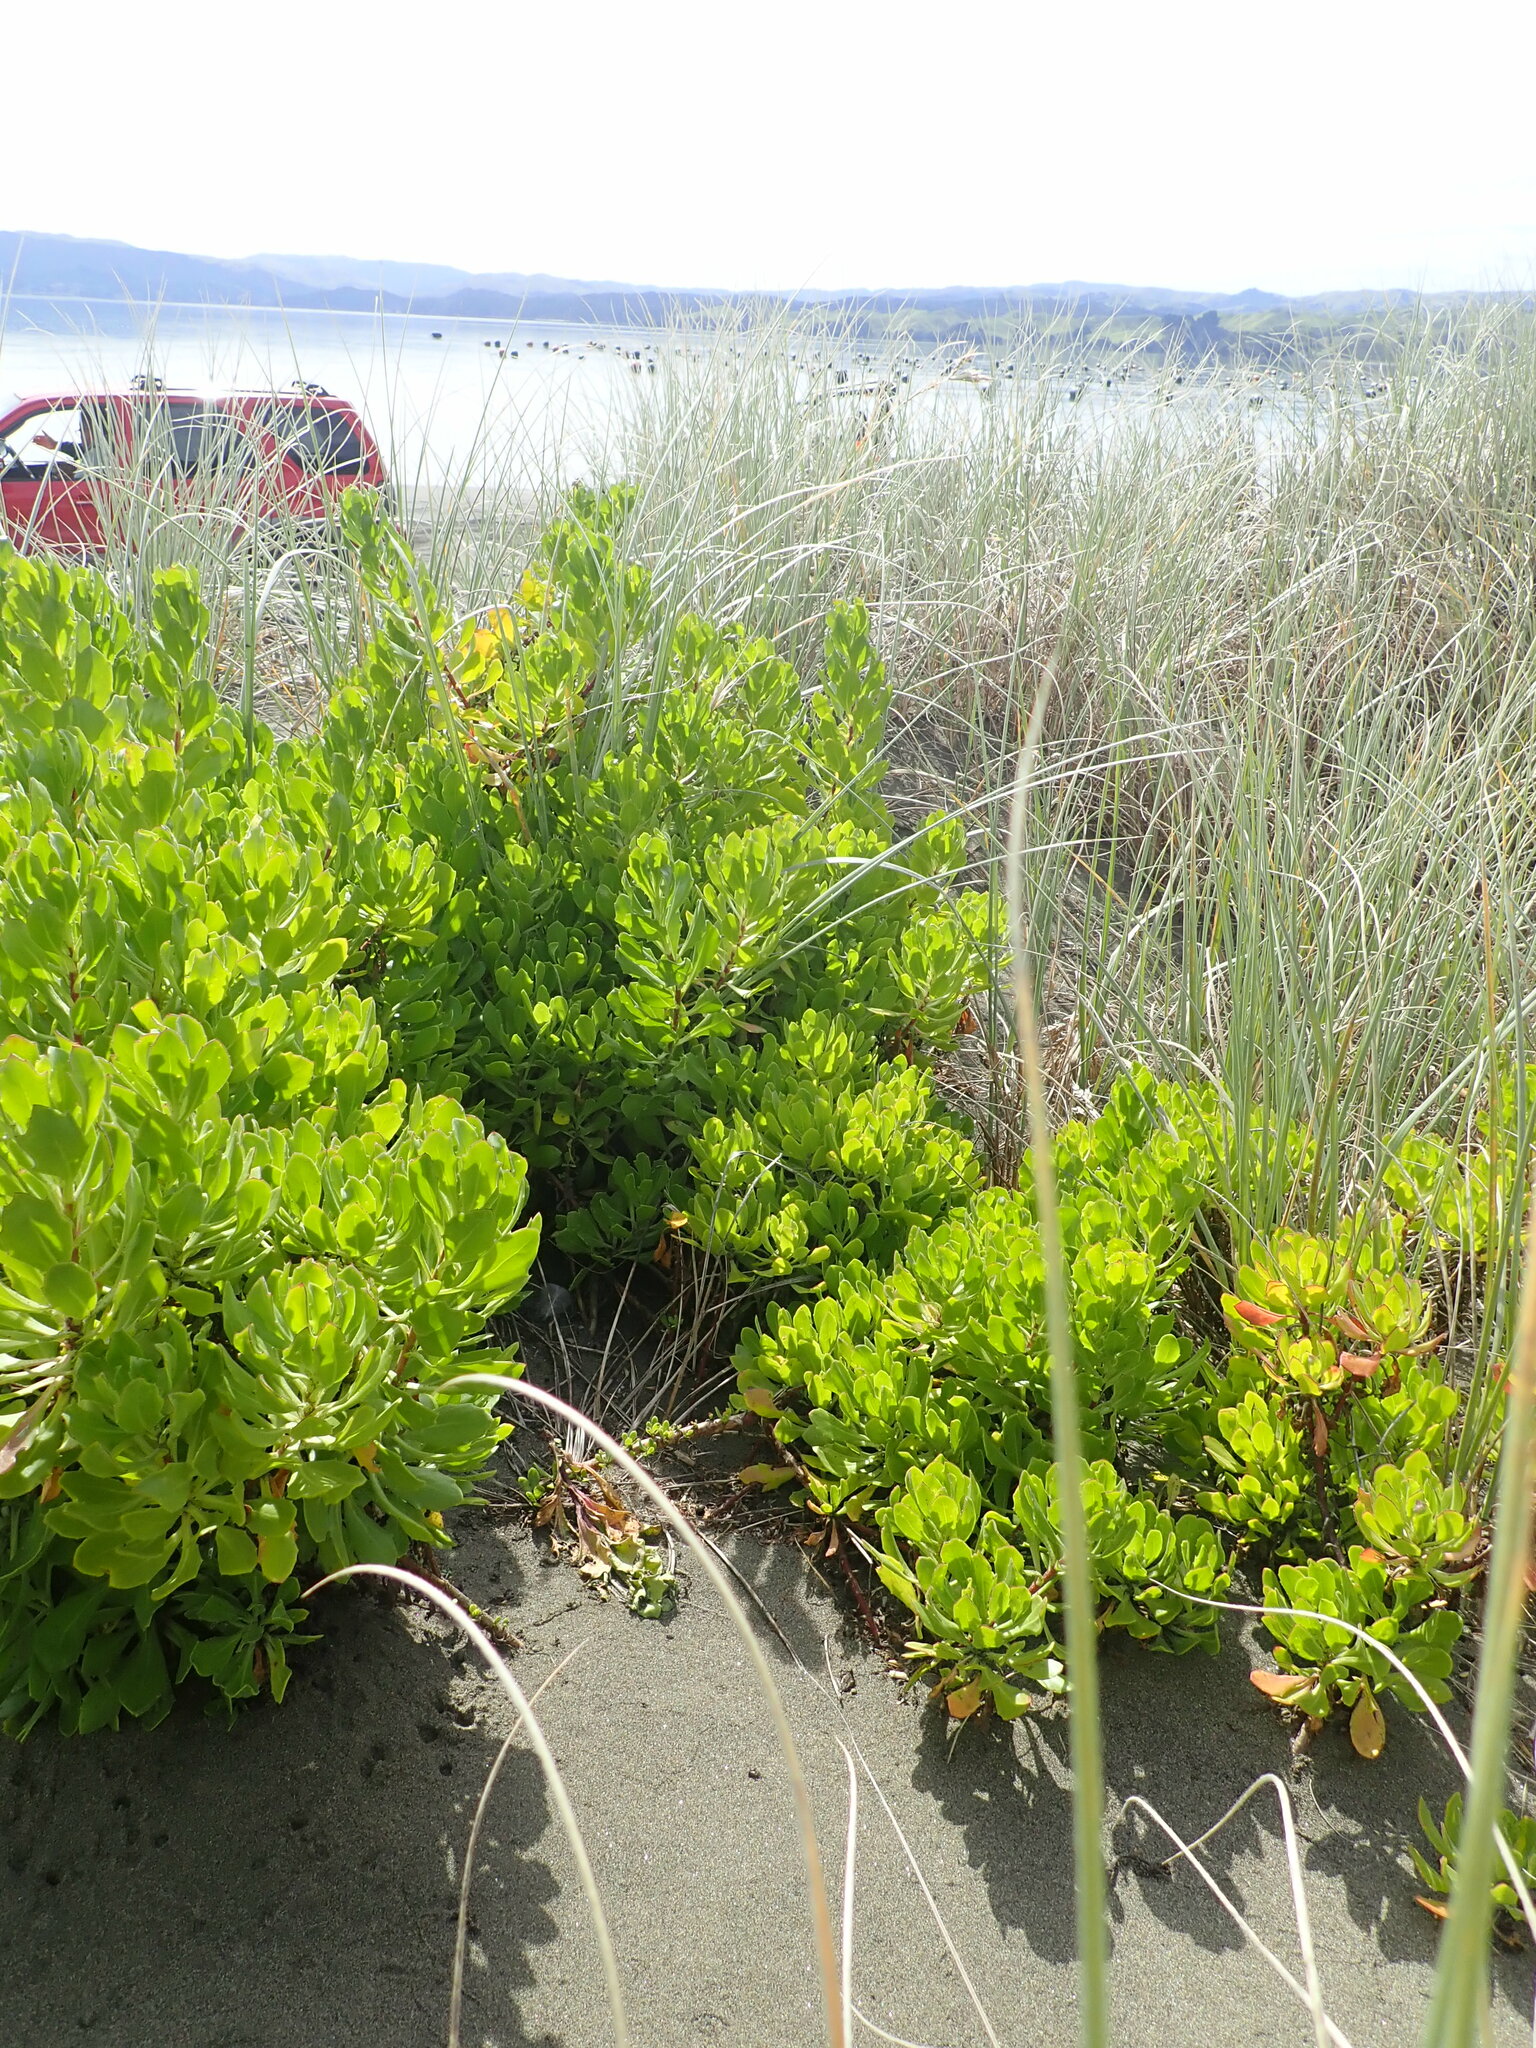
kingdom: Plantae
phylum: Tracheophyta
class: Magnoliopsida
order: Asterales
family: Asteraceae
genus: Dimorphotheca
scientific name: Dimorphotheca fruticosa
